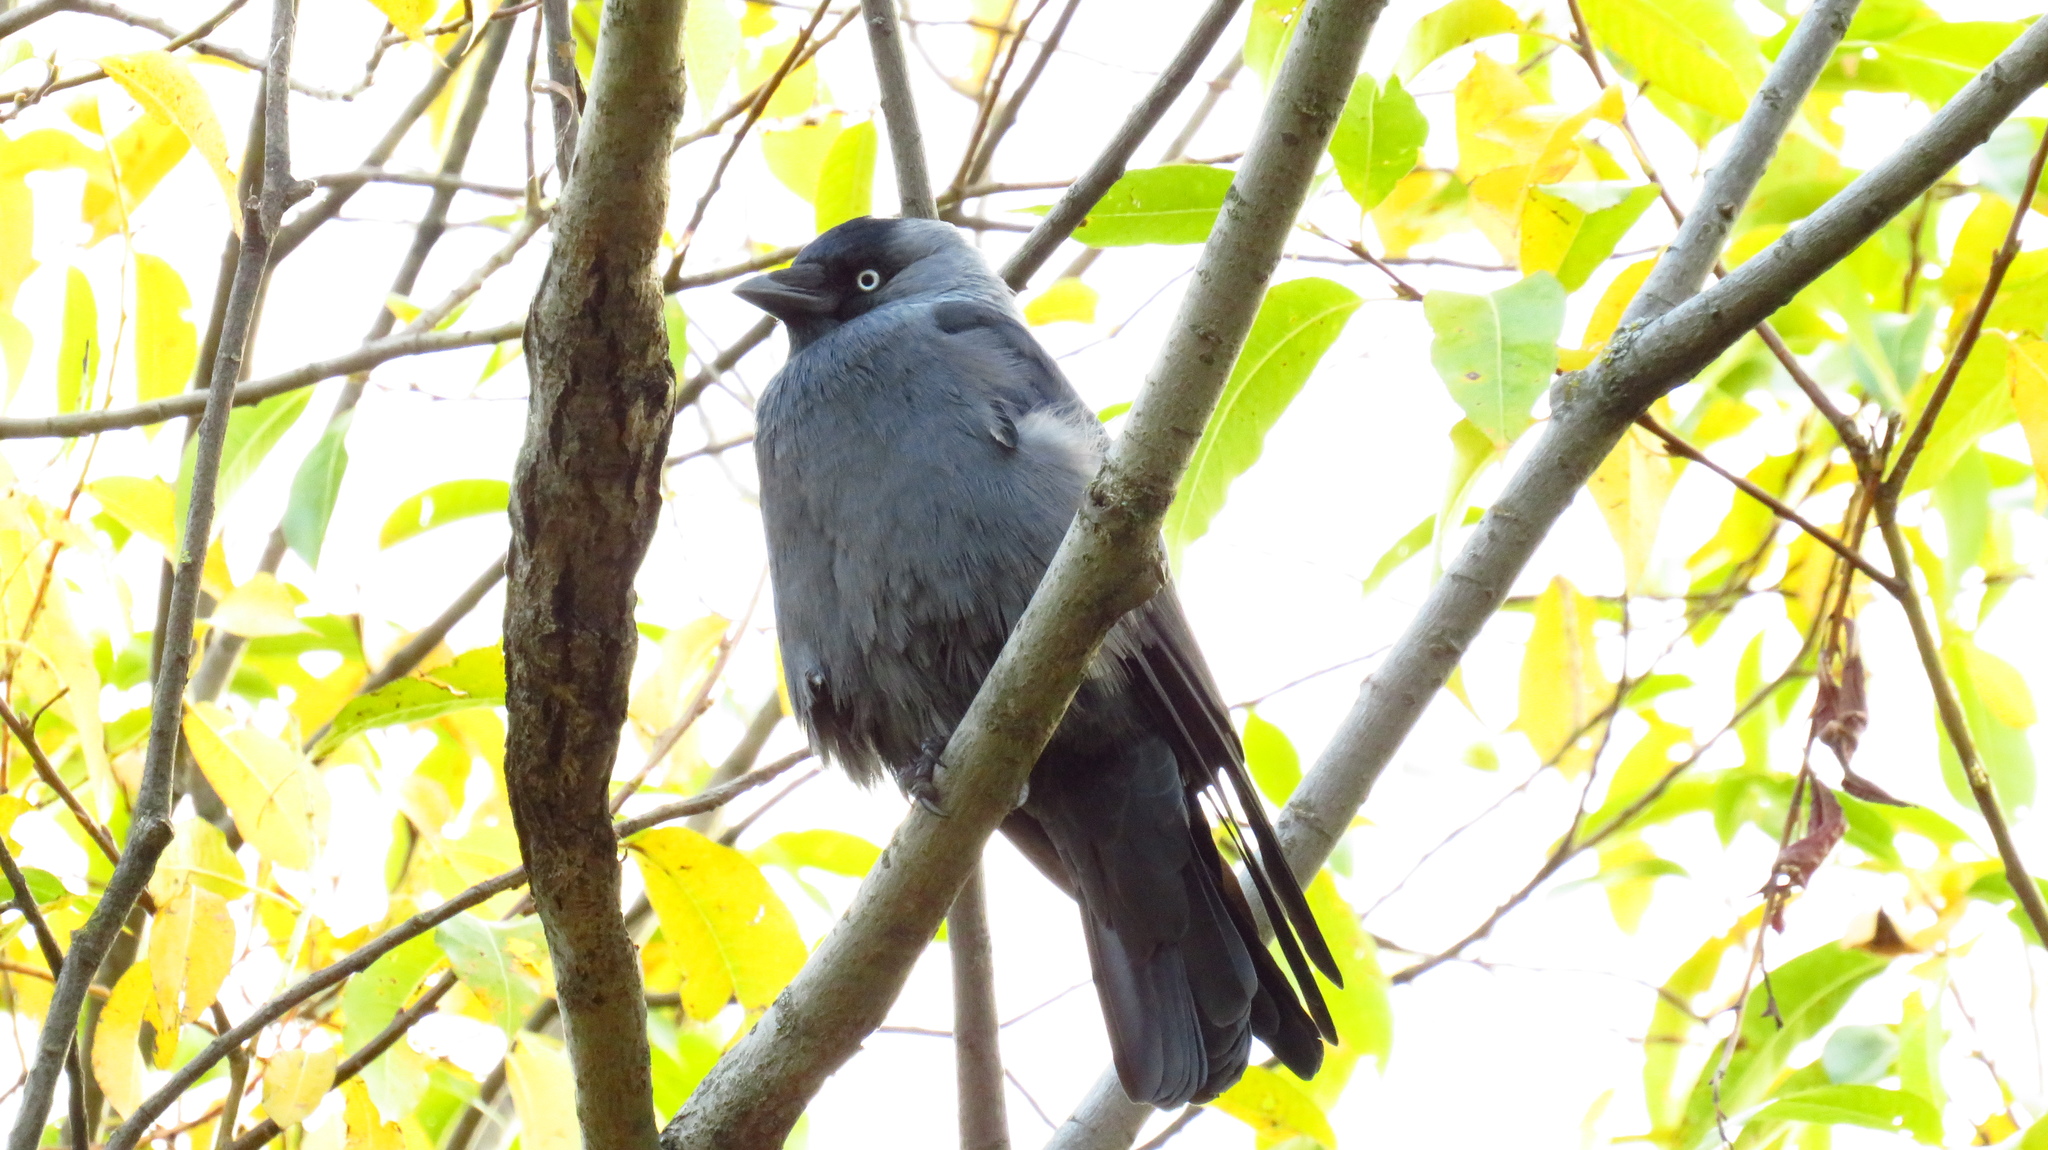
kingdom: Animalia
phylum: Chordata
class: Aves
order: Passeriformes
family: Corvidae
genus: Coloeus
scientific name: Coloeus monedula
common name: Western jackdaw
